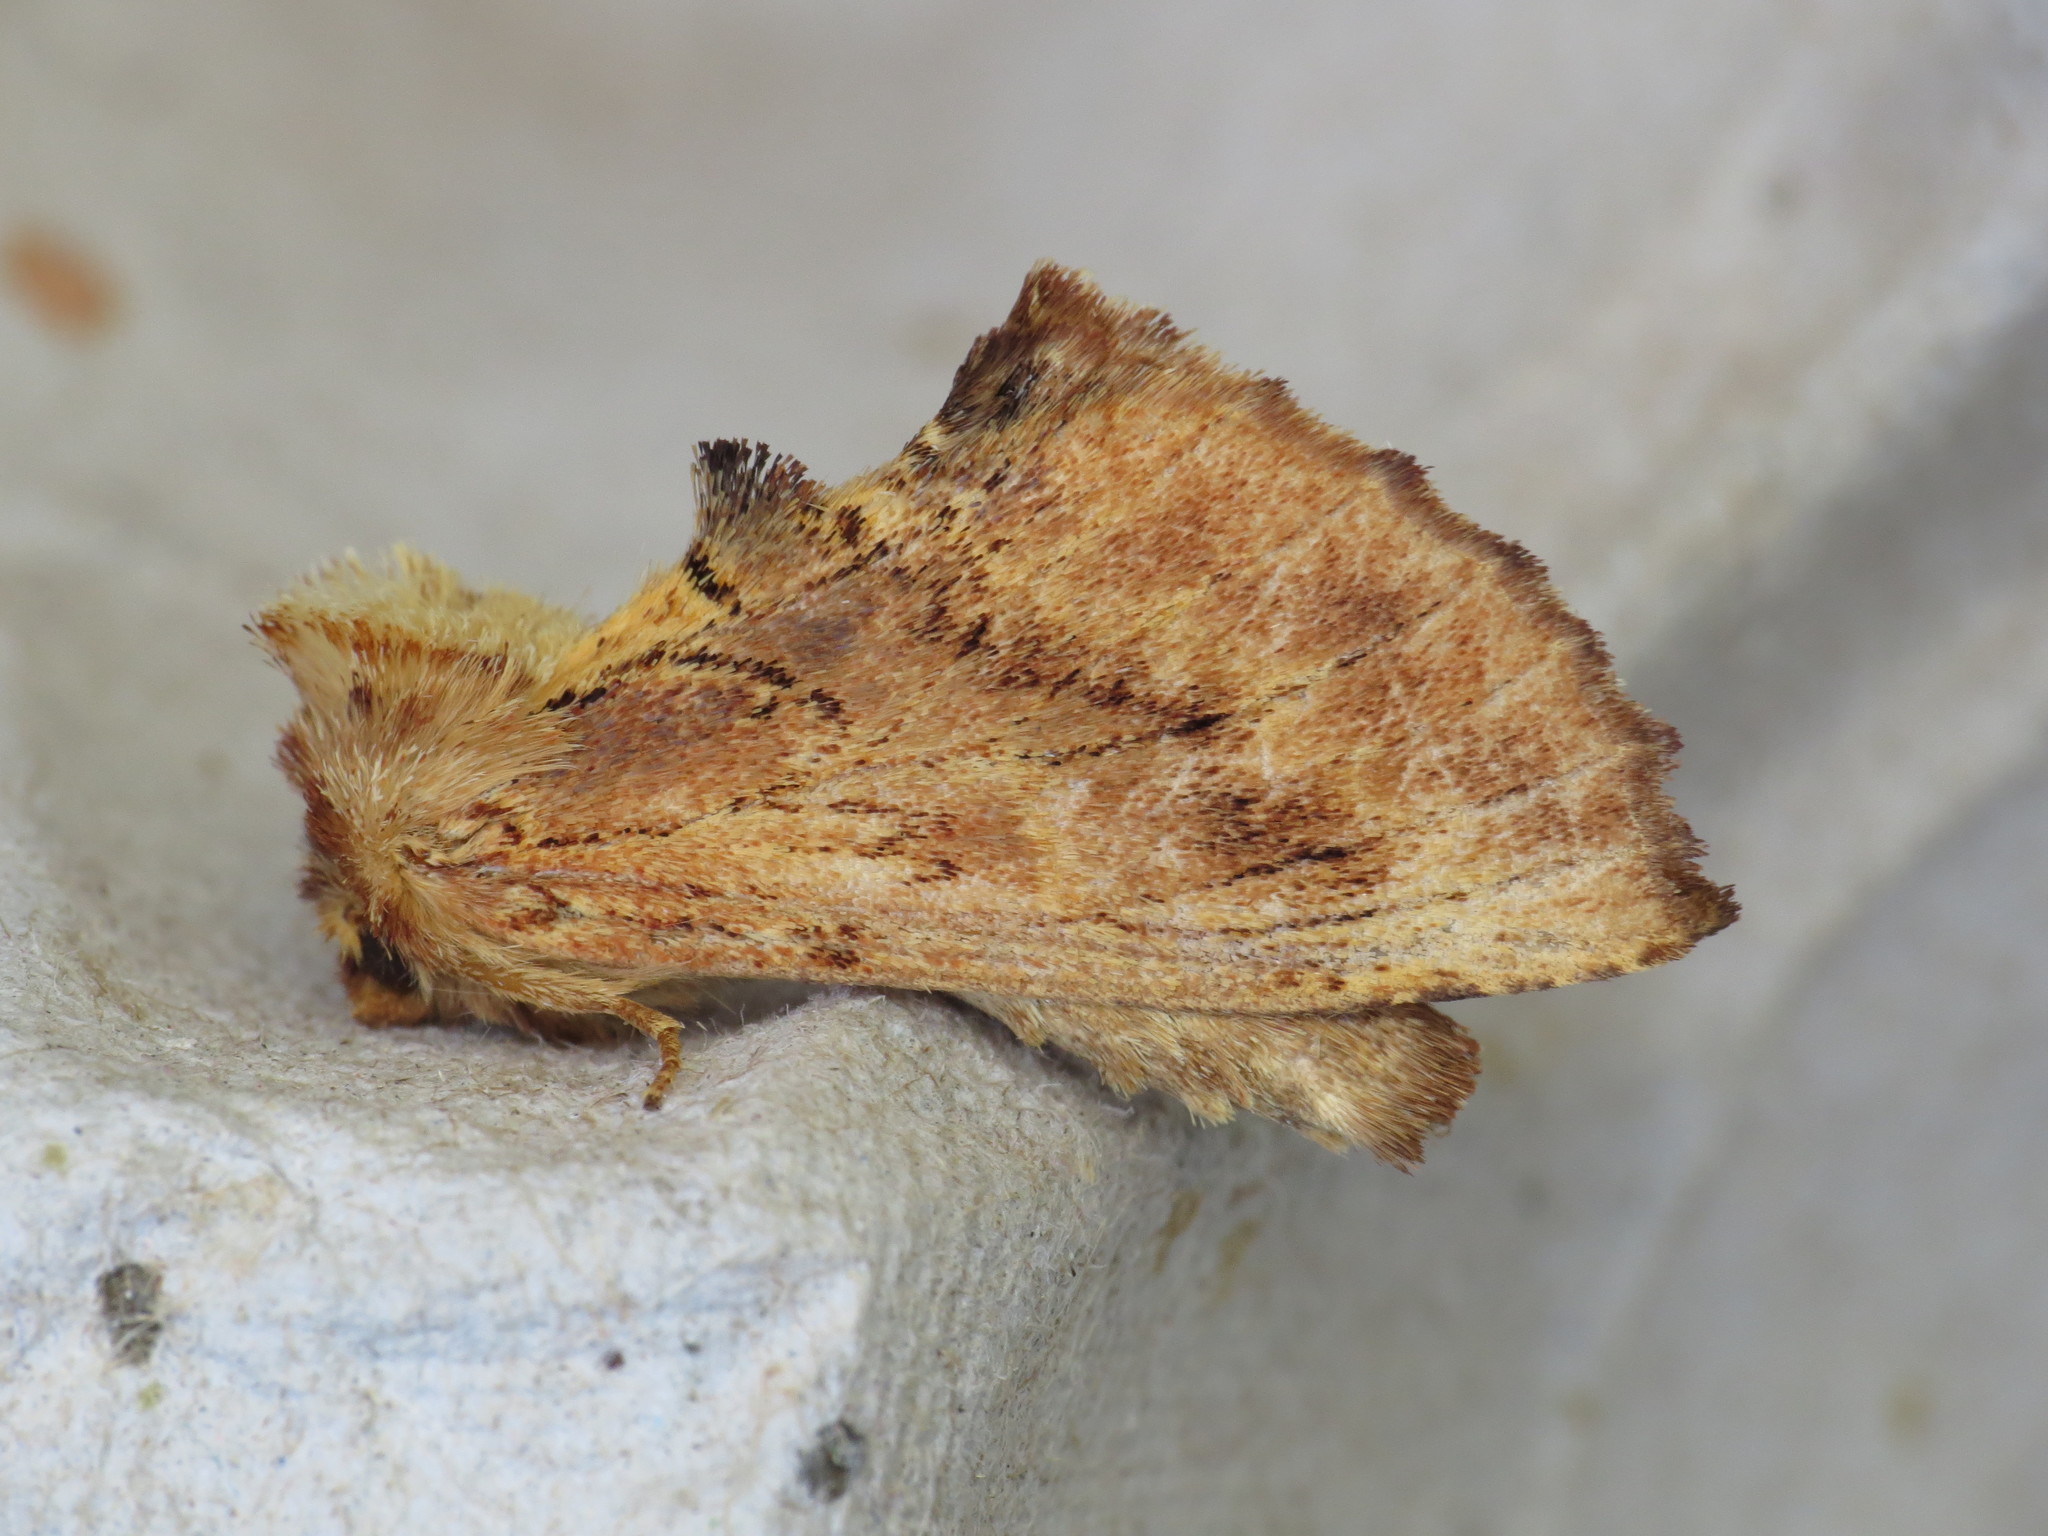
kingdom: Animalia
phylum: Arthropoda
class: Insecta
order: Lepidoptera
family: Notodontidae
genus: Ptilodon
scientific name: Ptilodon capucina
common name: Coxcomb prominent
